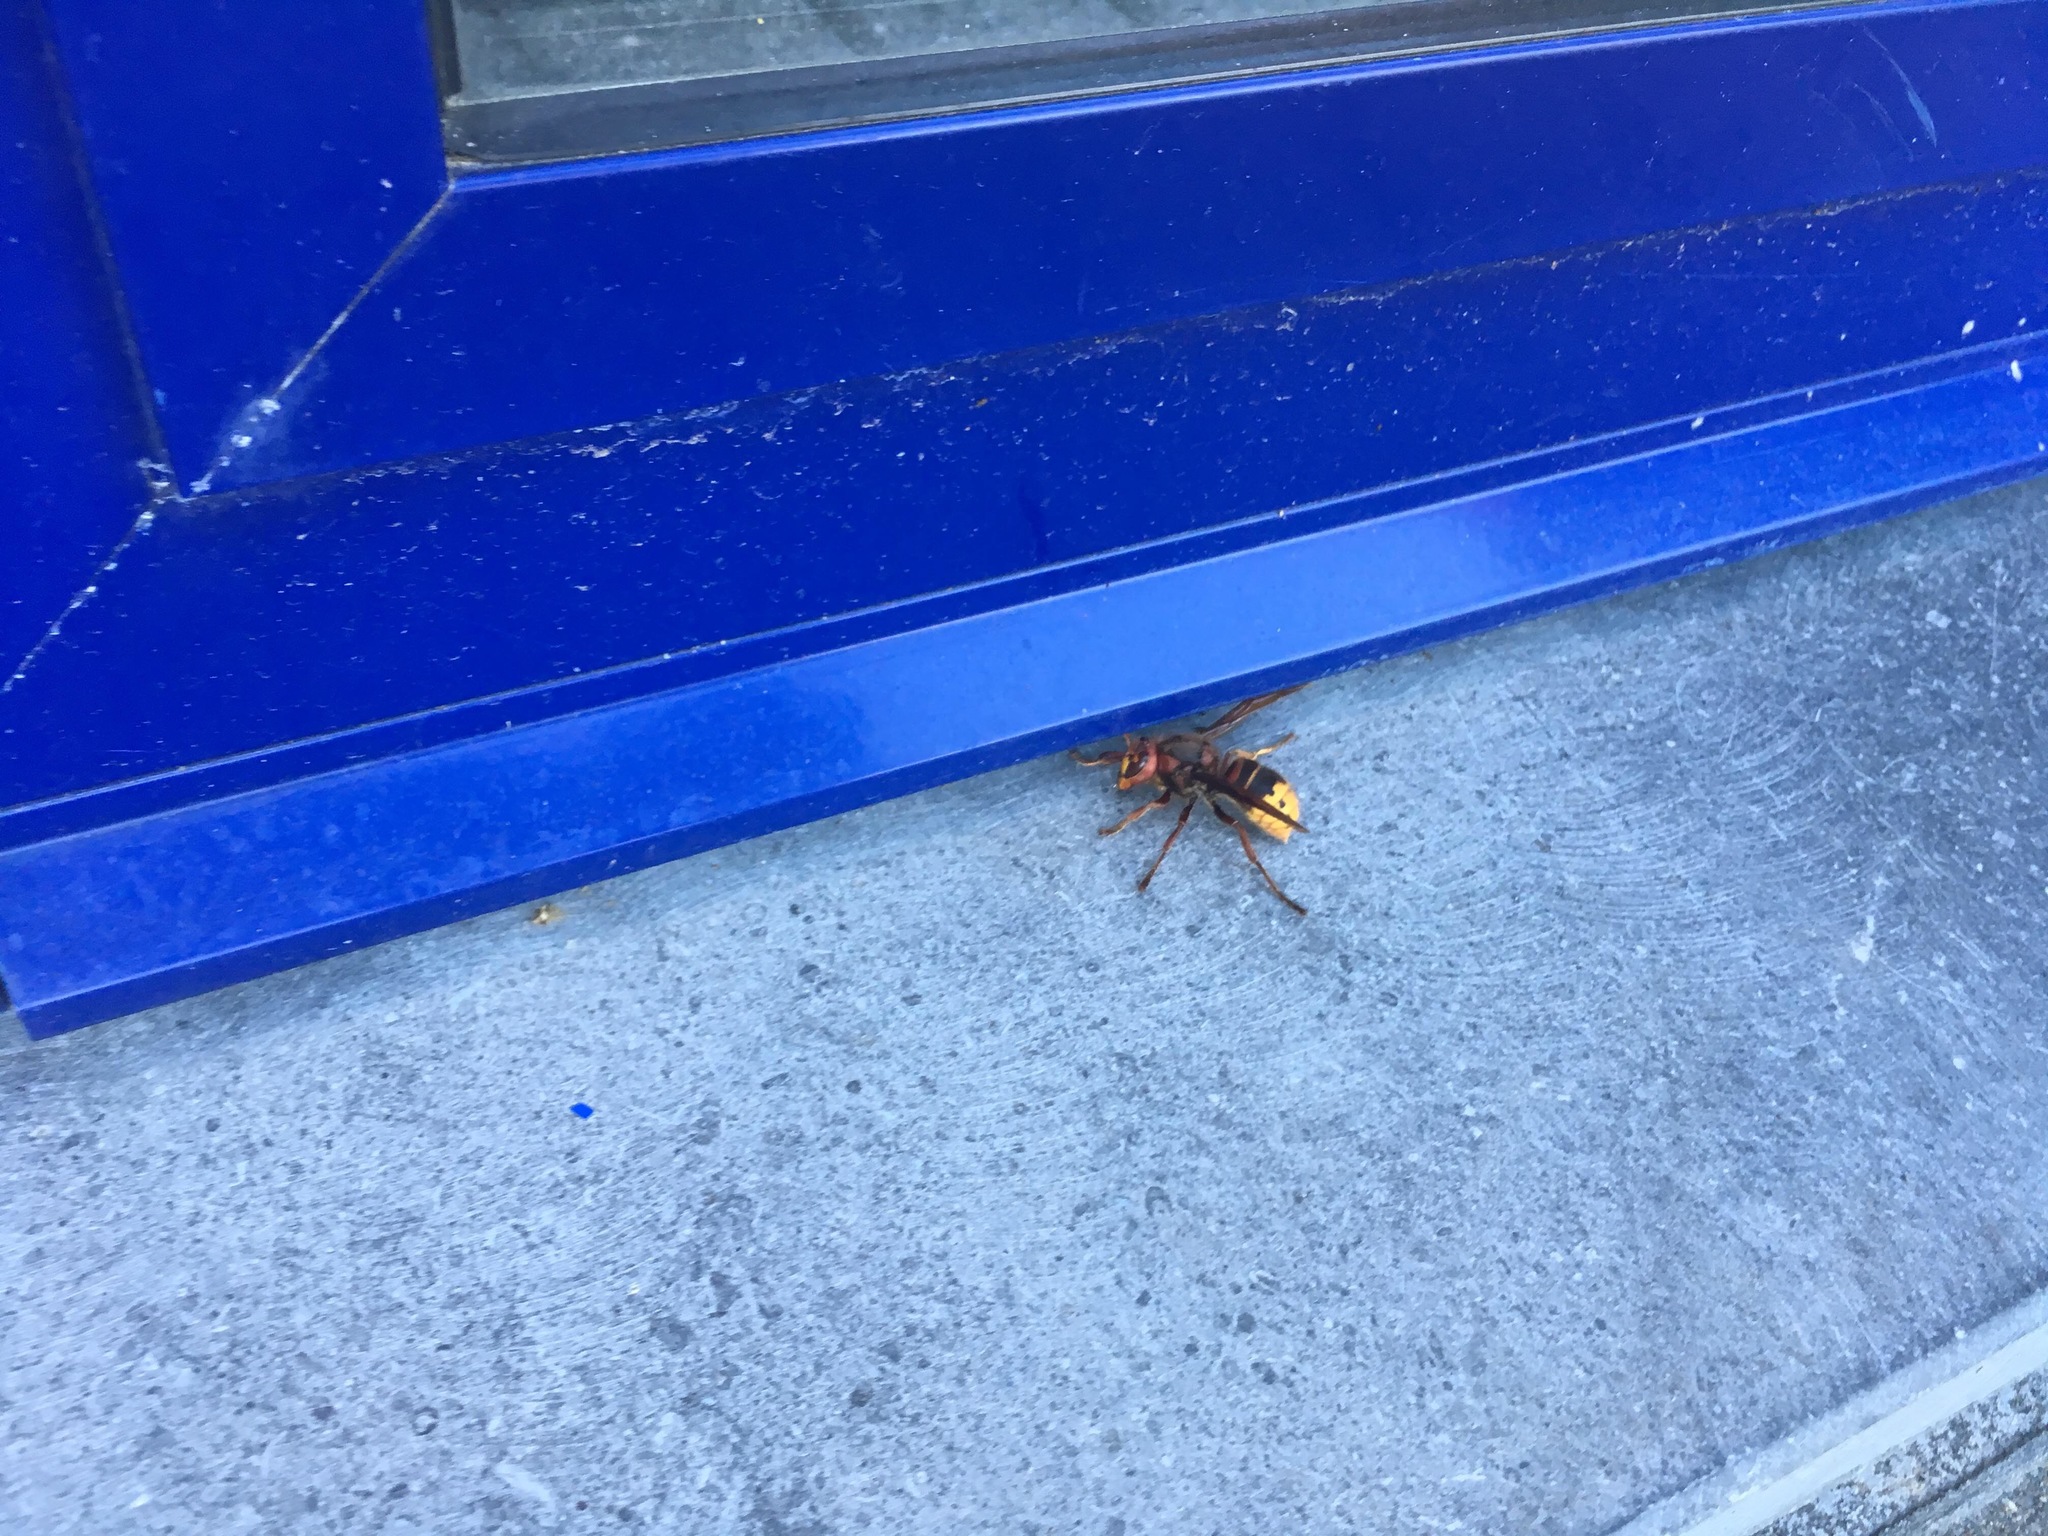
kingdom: Animalia
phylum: Arthropoda
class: Insecta
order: Hymenoptera
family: Vespidae
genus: Vespa
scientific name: Vespa crabro
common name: Hornet
